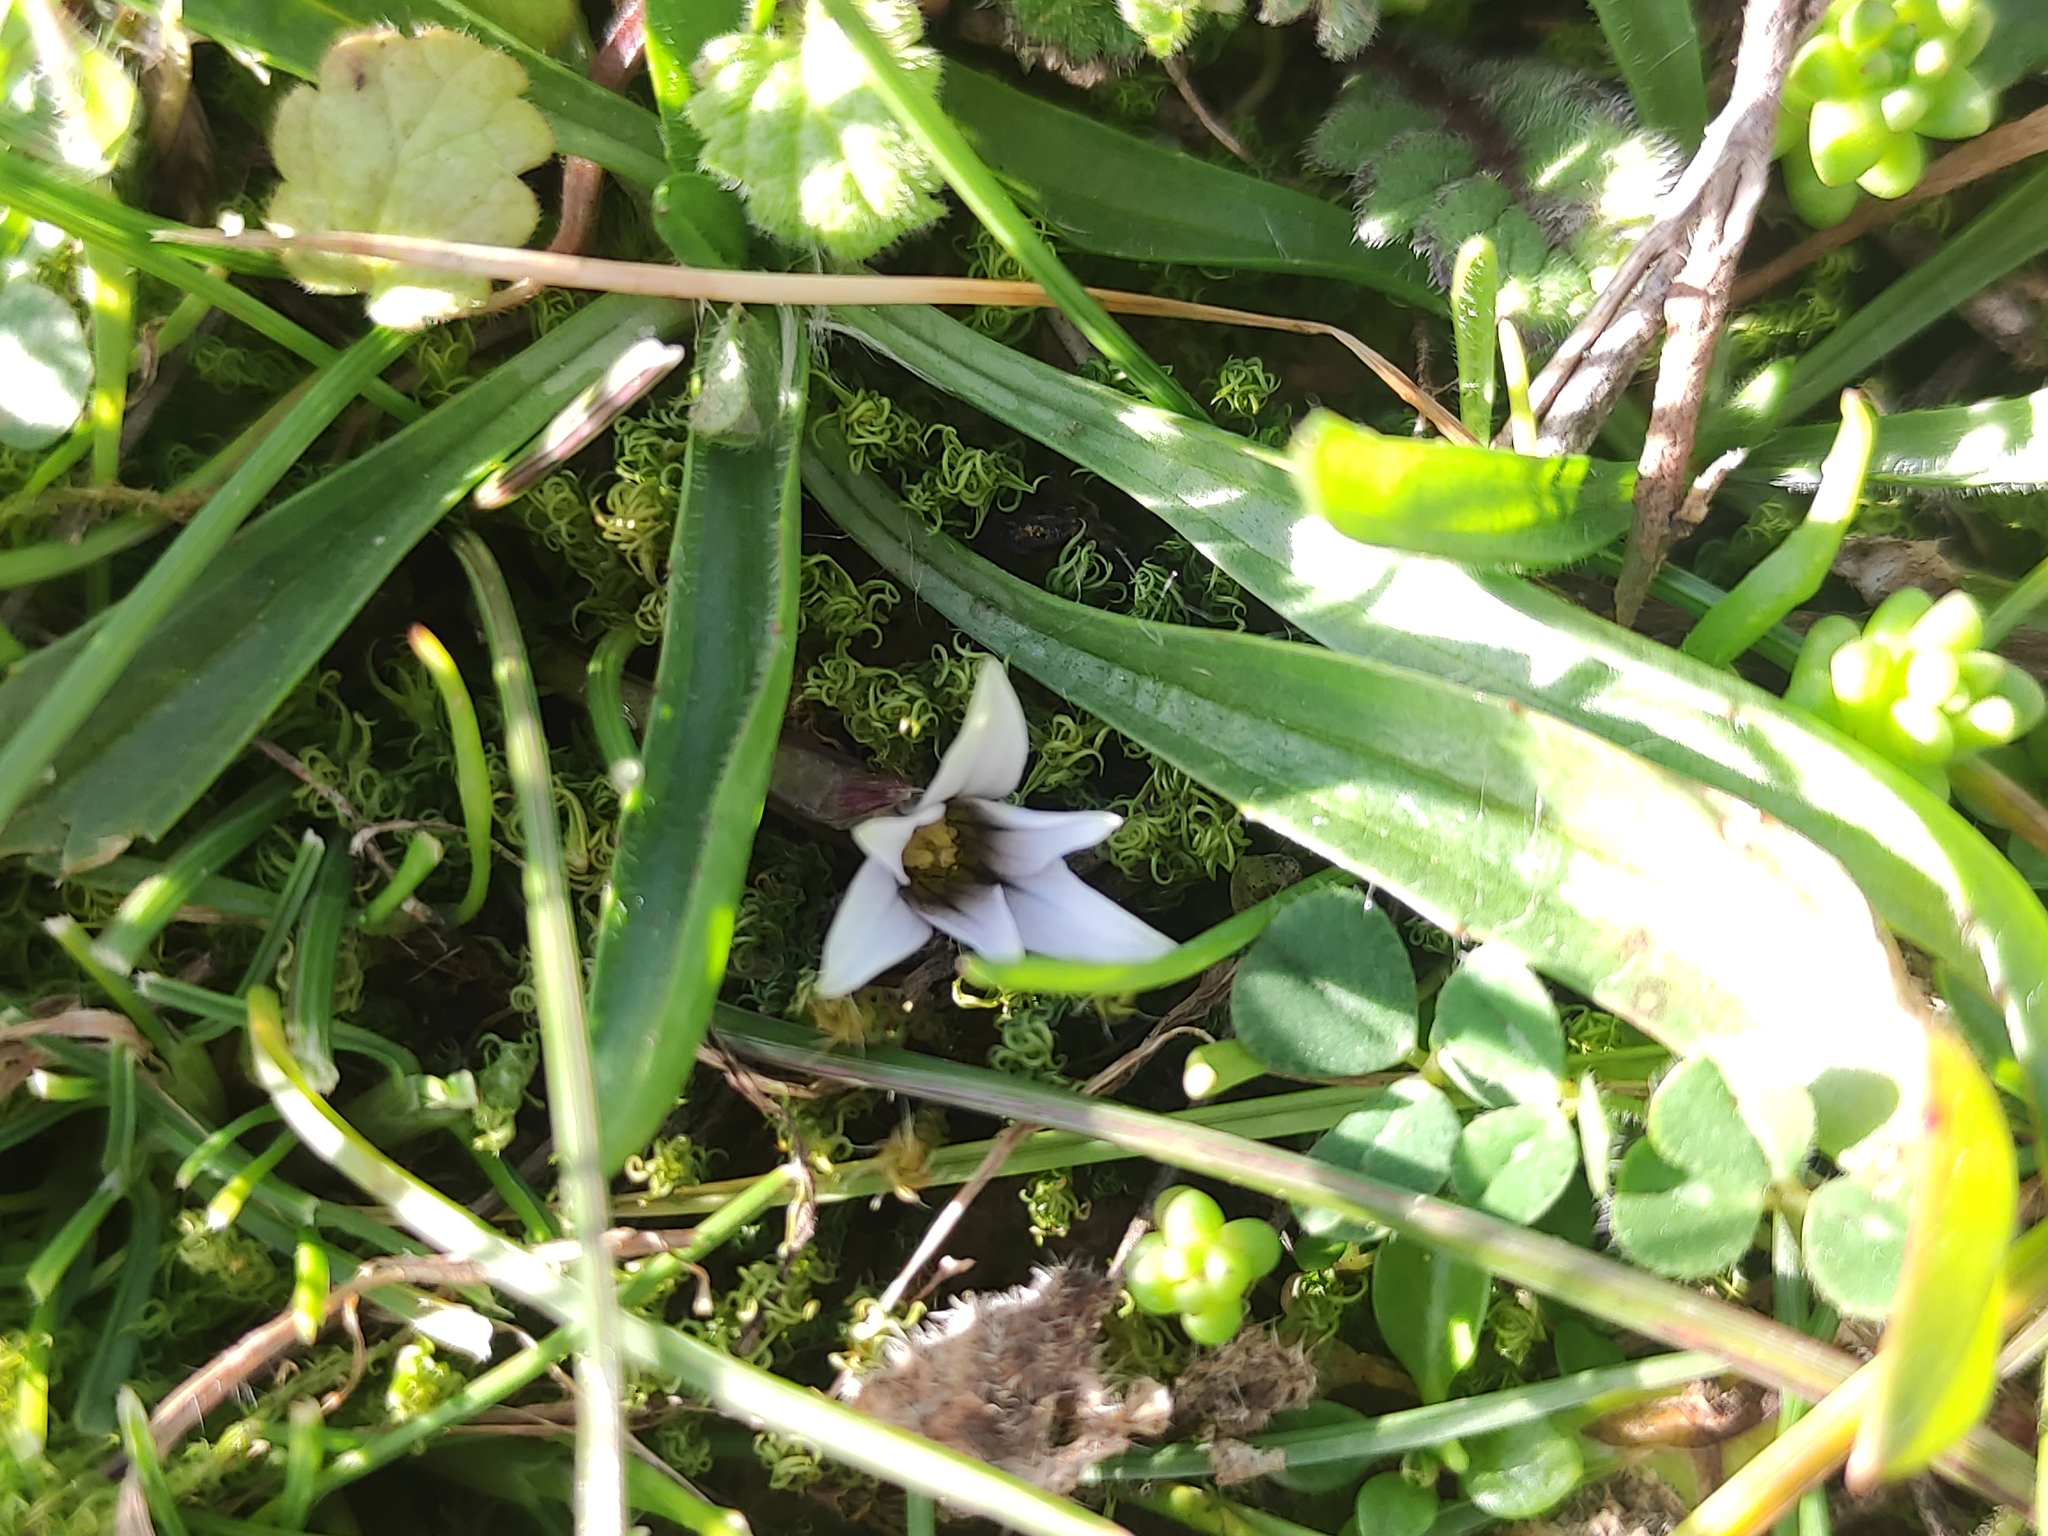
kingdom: Plantae
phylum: Tracheophyta
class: Liliopsida
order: Asparagales
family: Iridaceae
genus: Romulea
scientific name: Romulea columnae
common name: Sand-crocus
